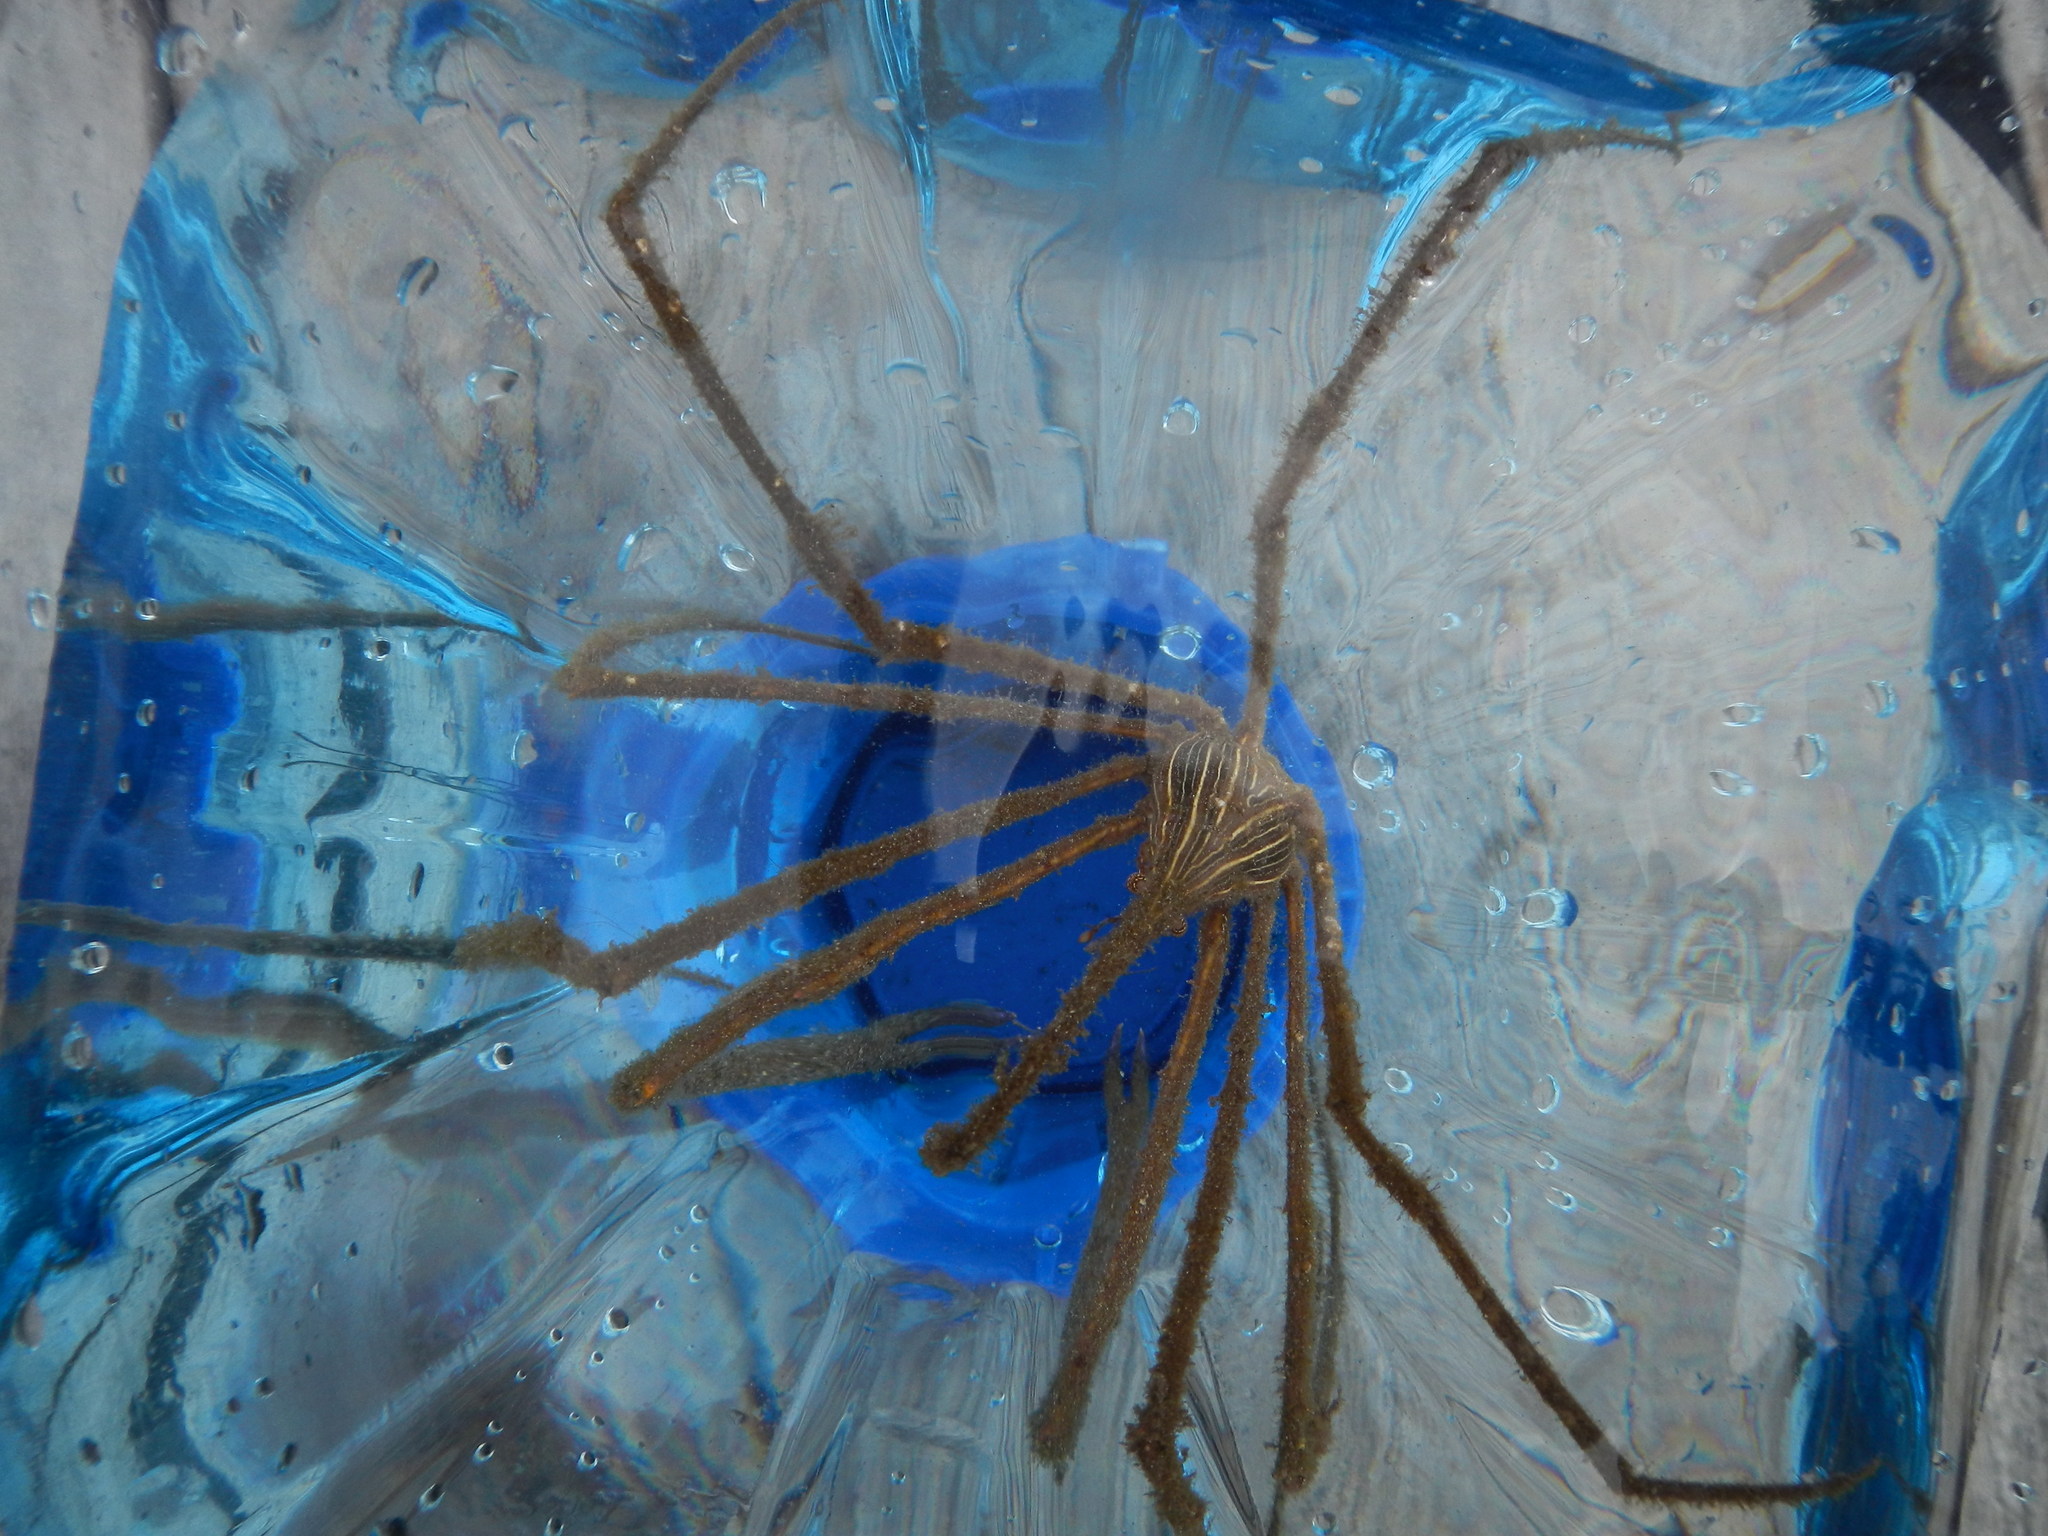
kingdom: Animalia
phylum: Arthropoda
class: Malacostraca
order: Decapoda
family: Inachoididae
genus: Stenorhynchus
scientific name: Stenorhynchus seticornis
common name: Arrow crab
